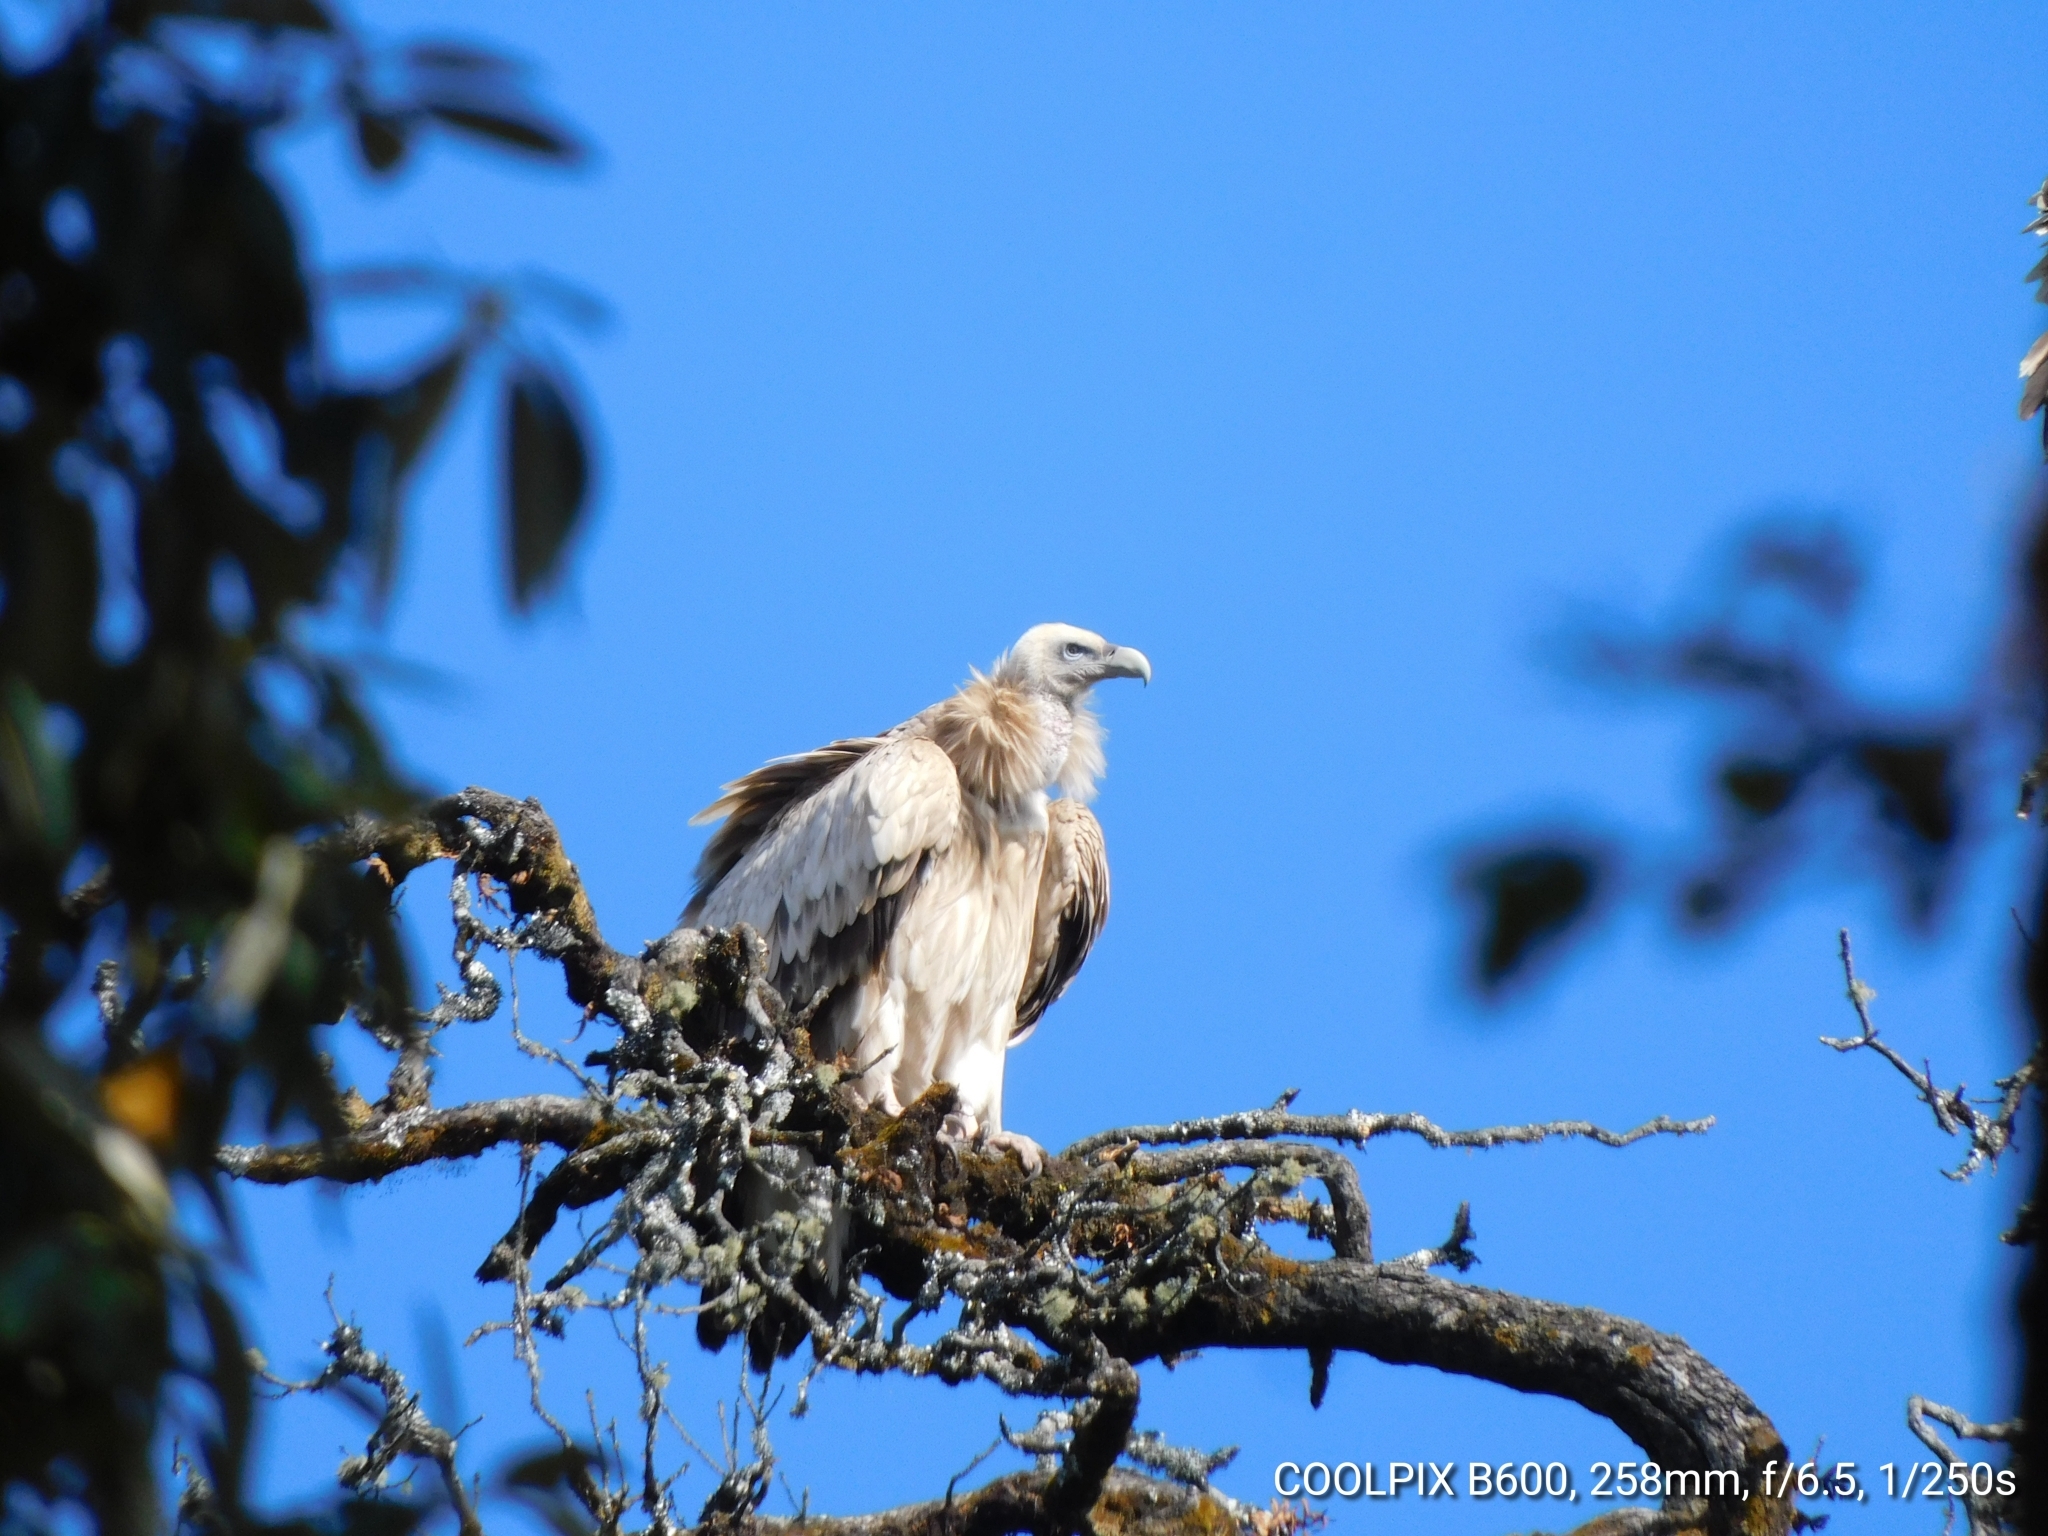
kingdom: Animalia
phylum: Chordata
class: Aves
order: Accipitriformes
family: Accipitridae
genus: Gyps
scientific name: Gyps himalayensis
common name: Himalayan griffon
